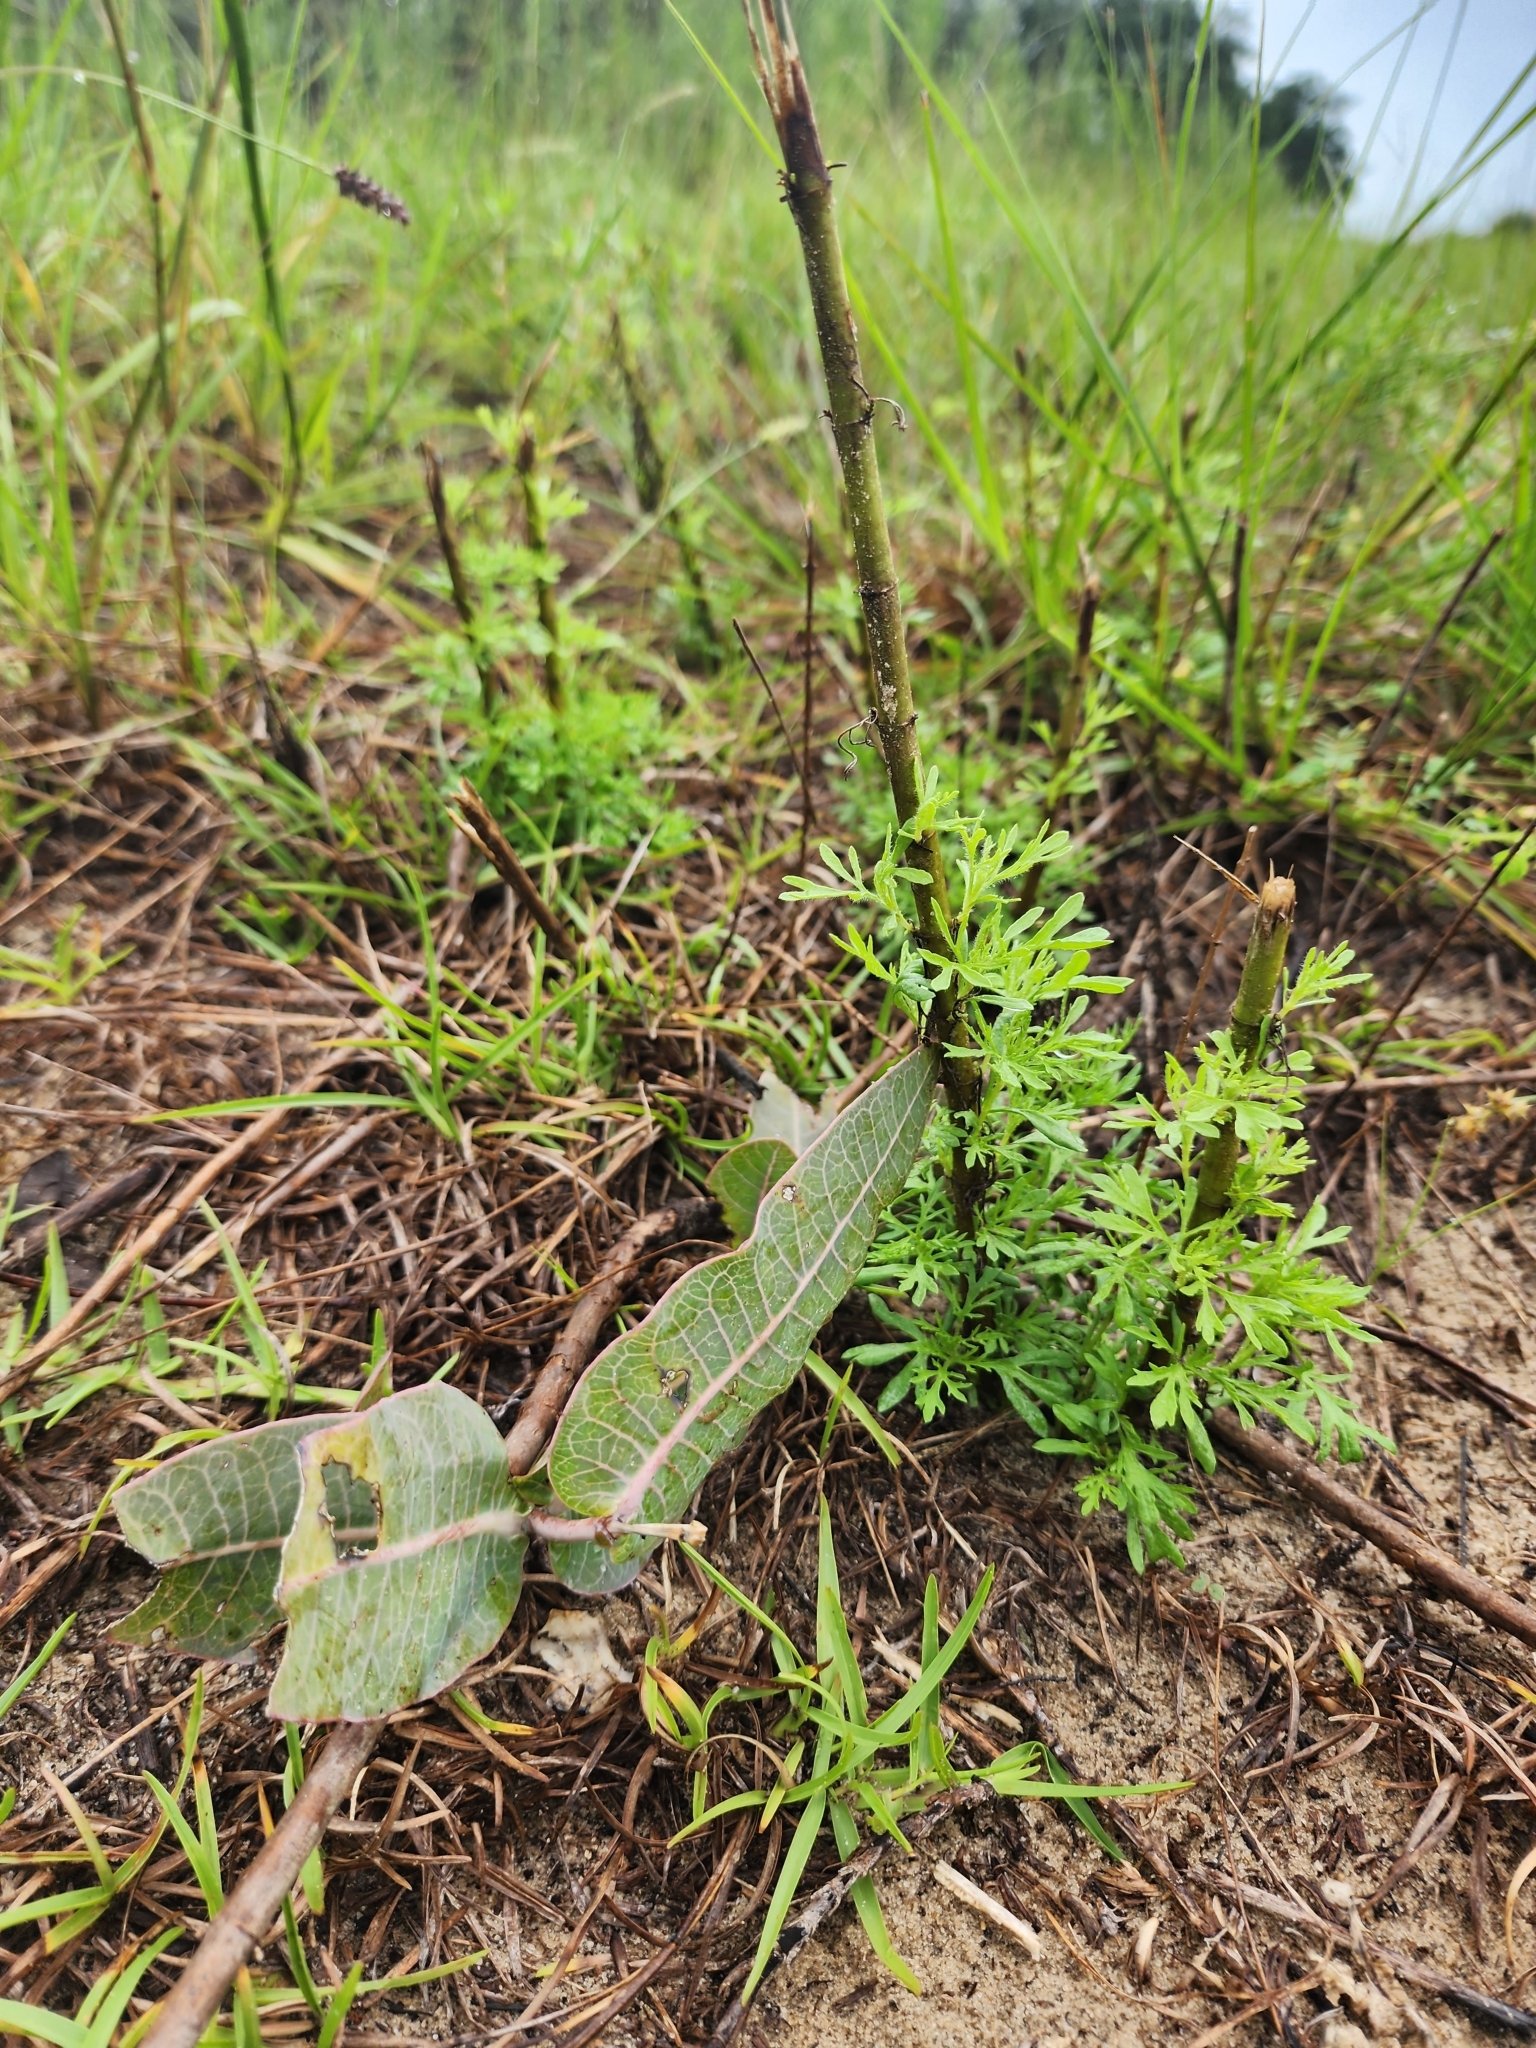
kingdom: Plantae
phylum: Tracheophyta
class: Magnoliopsida
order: Gentianales
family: Apocynaceae
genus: Asclepias
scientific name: Asclepias humistrata
